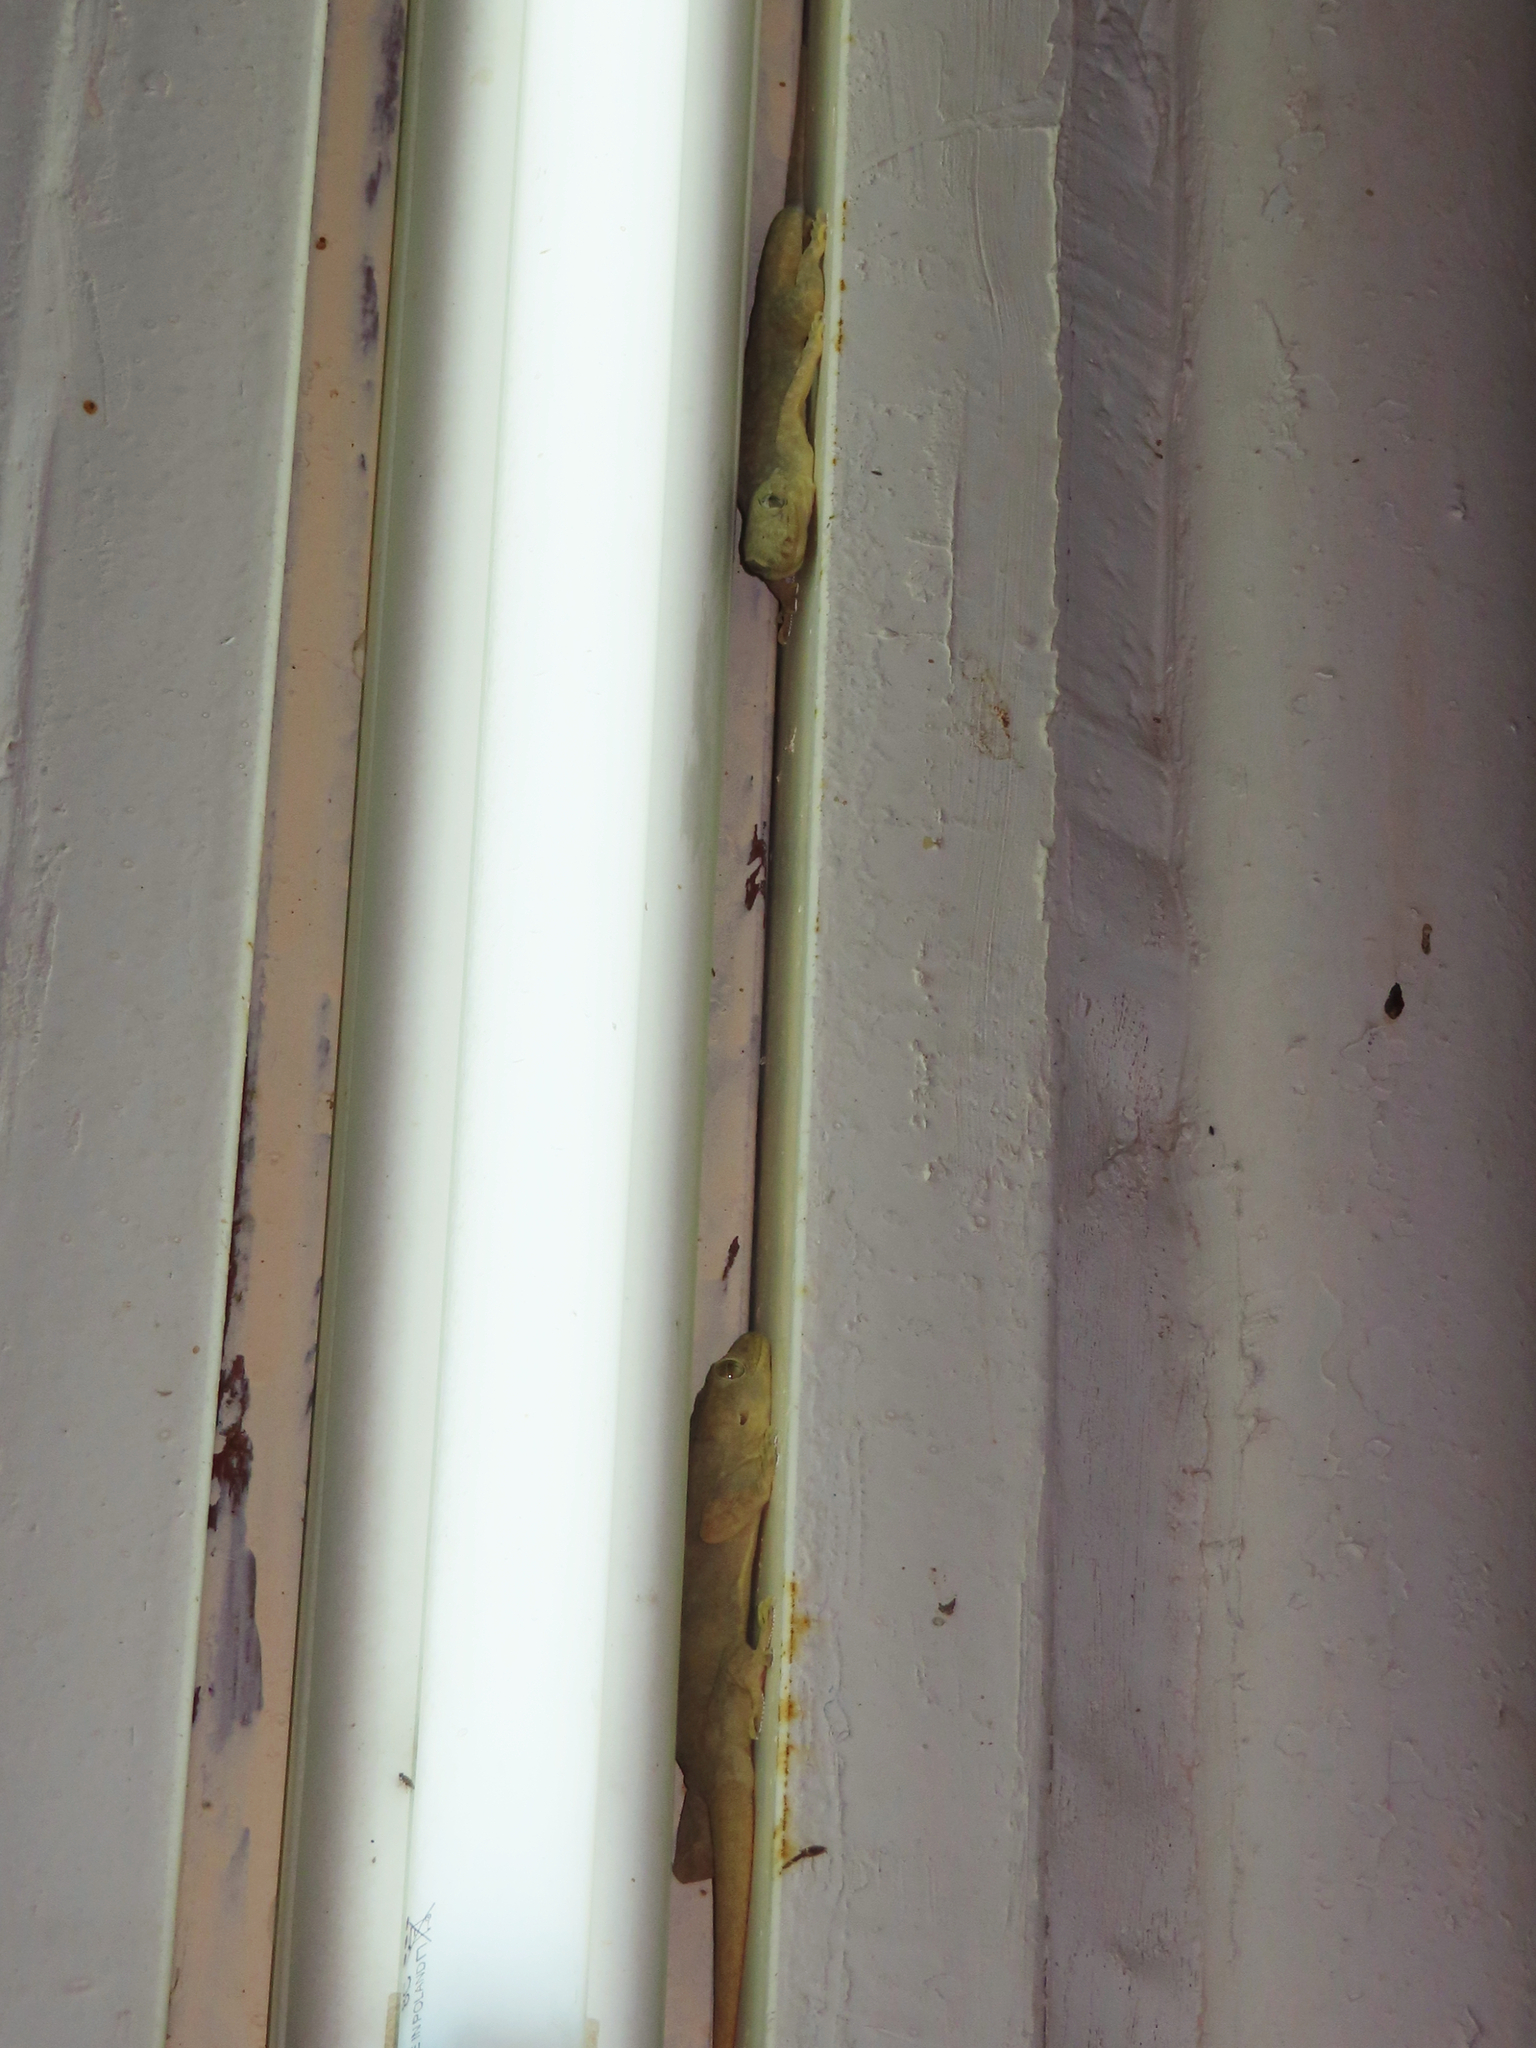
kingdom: Animalia
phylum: Chordata
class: Squamata
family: Gekkonidae
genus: Hemidactylus
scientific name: Hemidactylus flaviviridis
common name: Northern house gecko
